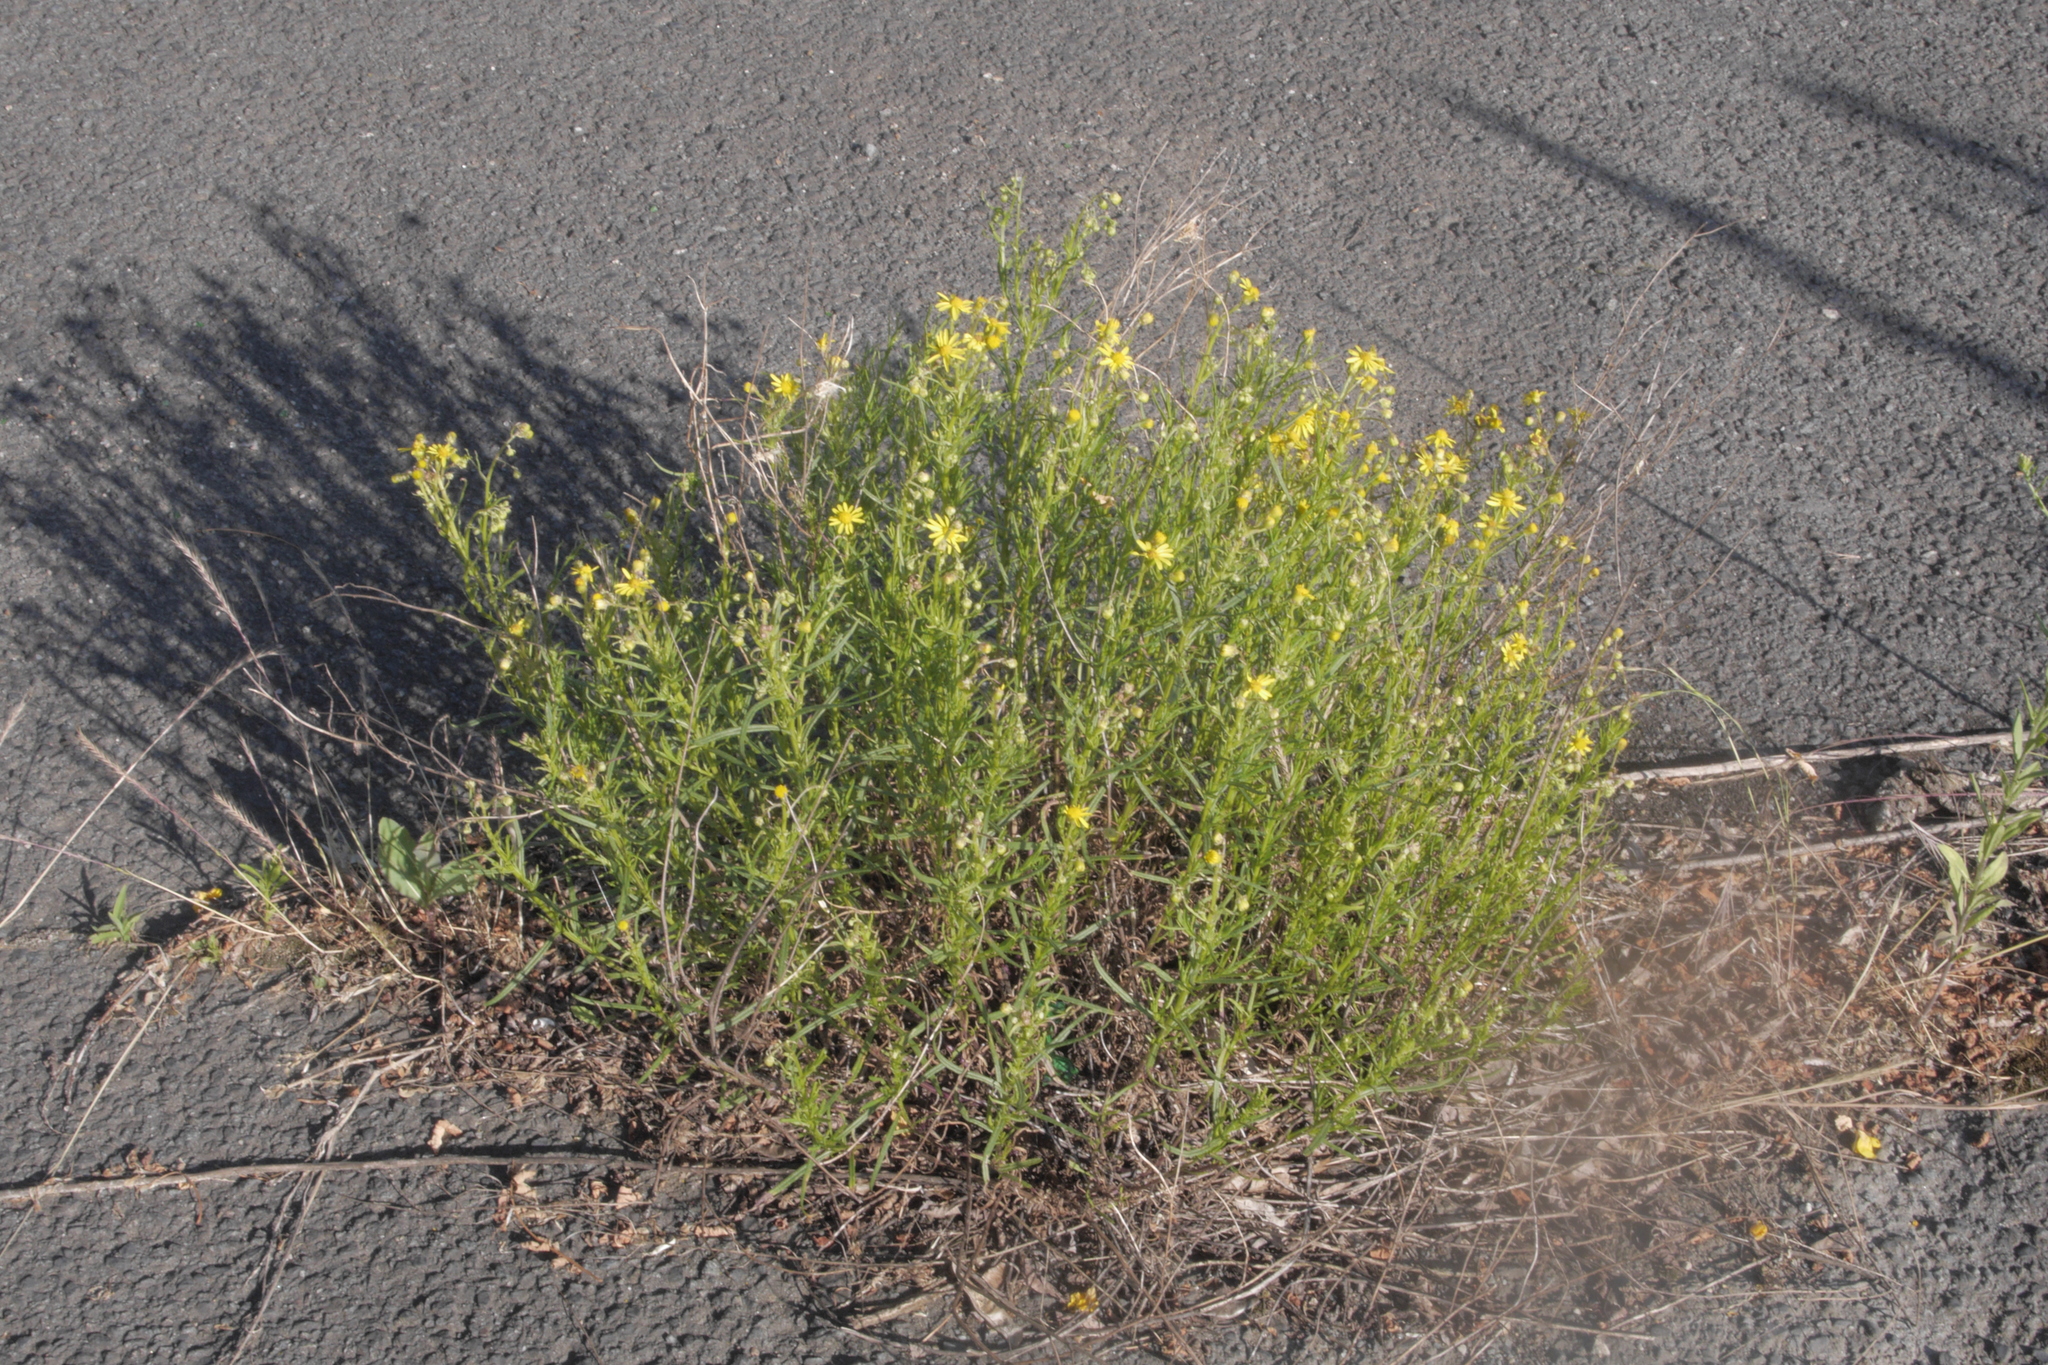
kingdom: Plantae
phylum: Tracheophyta
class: Magnoliopsida
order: Asterales
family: Asteraceae
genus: Senecio
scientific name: Senecio inaequidens
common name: Narrow-leaved ragwort
